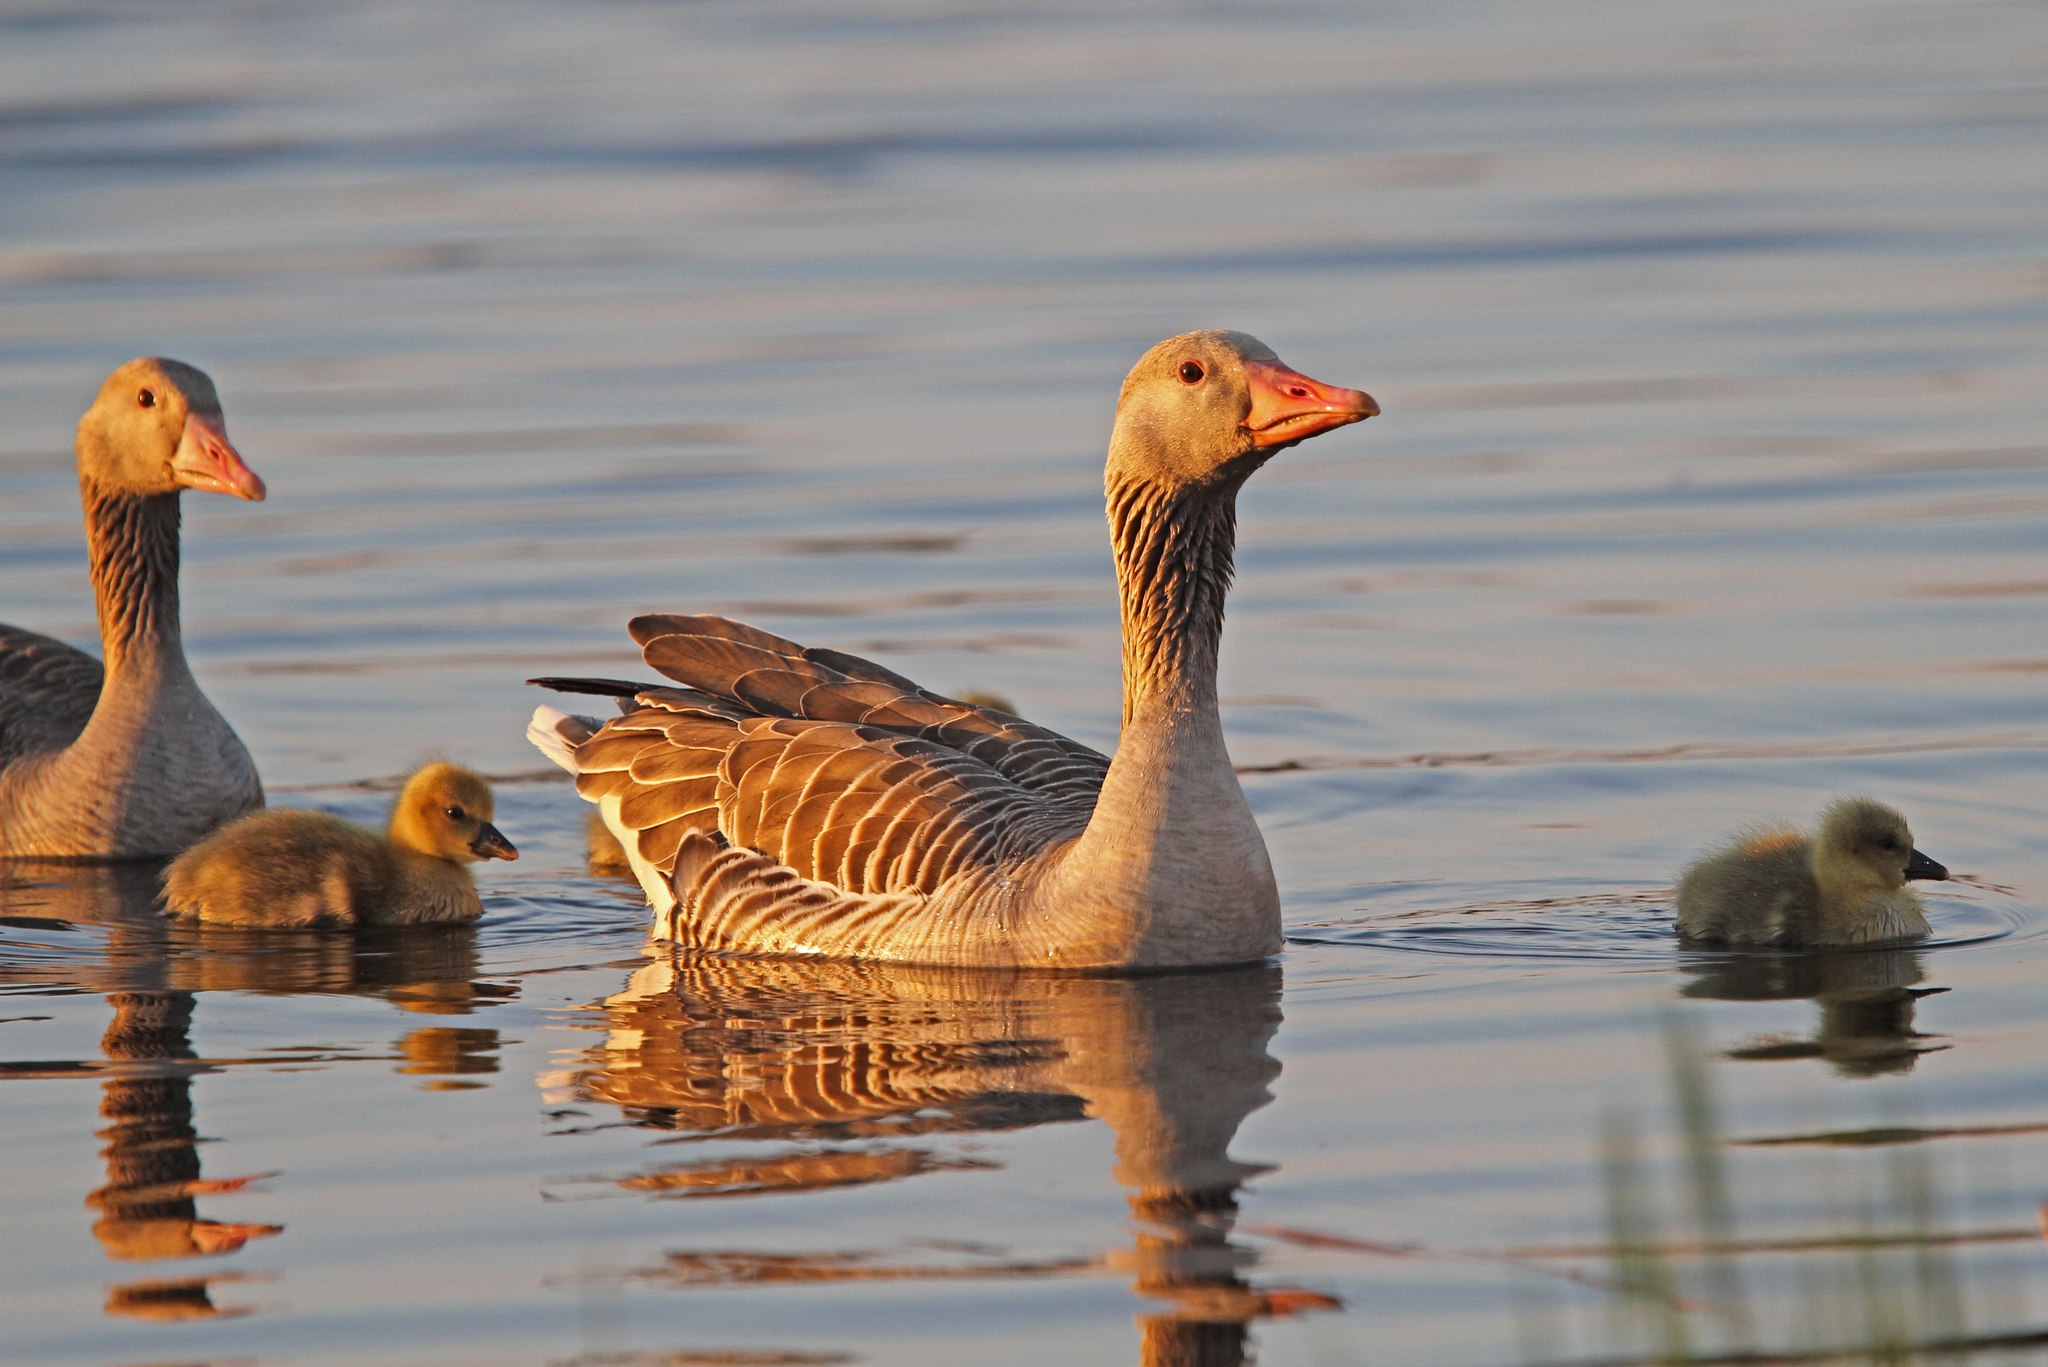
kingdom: Animalia
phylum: Chordata
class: Aves
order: Anseriformes
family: Anatidae
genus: Anser
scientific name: Anser anser
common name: Greylag goose
